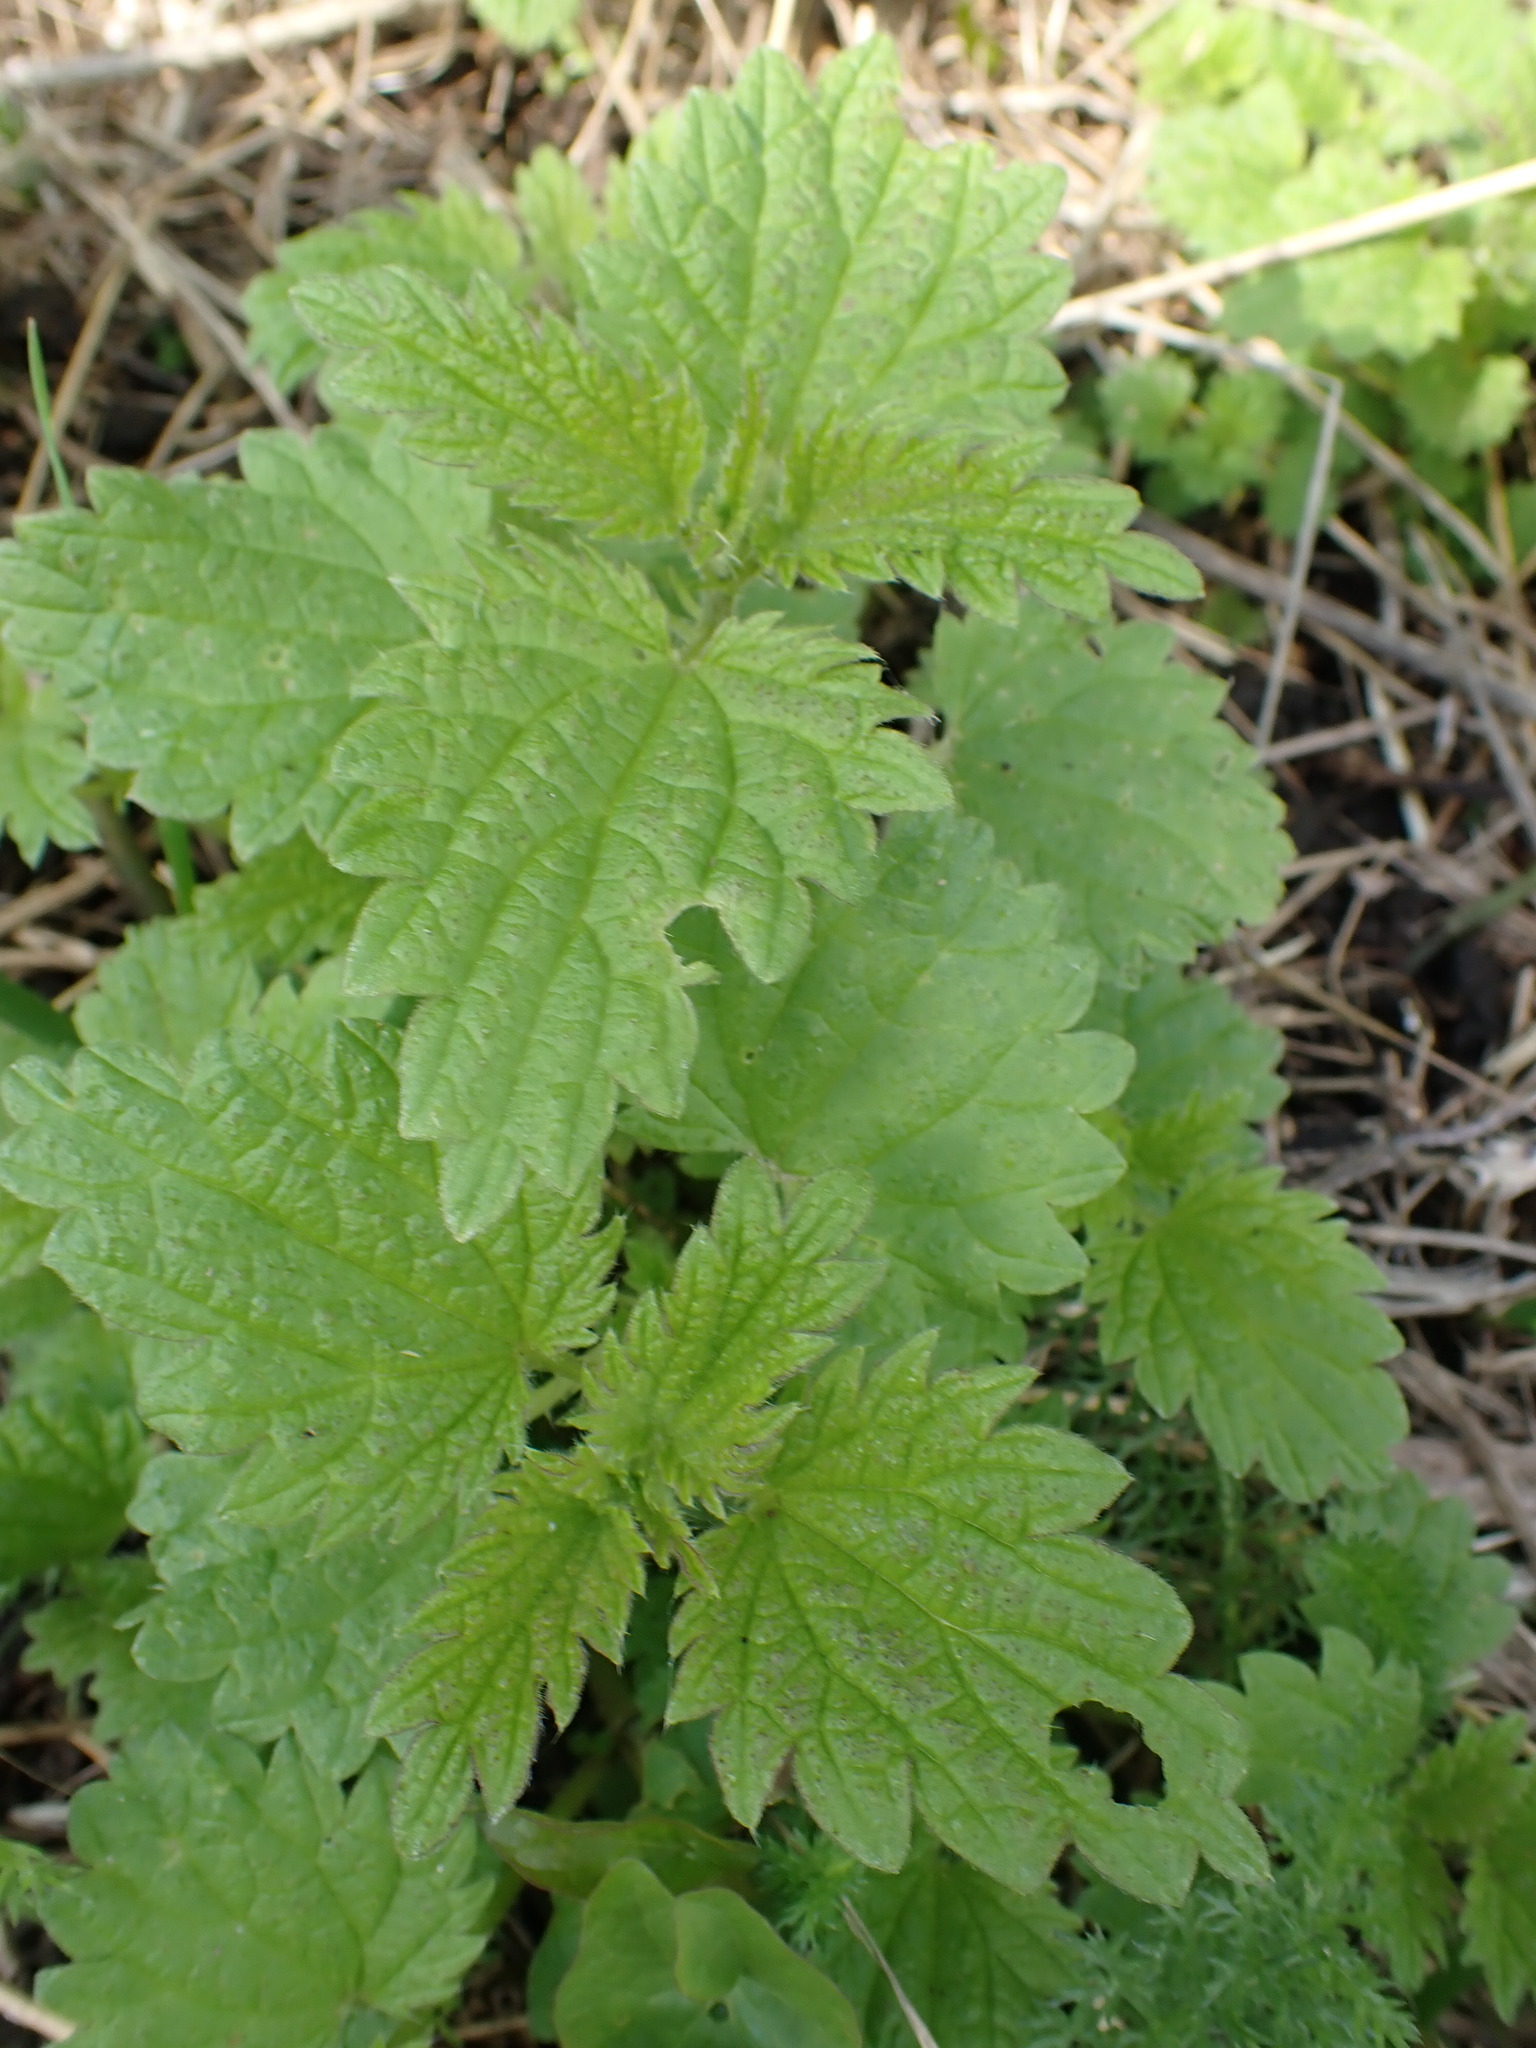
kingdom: Plantae
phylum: Tracheophyta
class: Magnoliopsida
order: Rosales
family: Urticaceae
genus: Urtica
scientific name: Urtica dioica
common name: Common nettle
